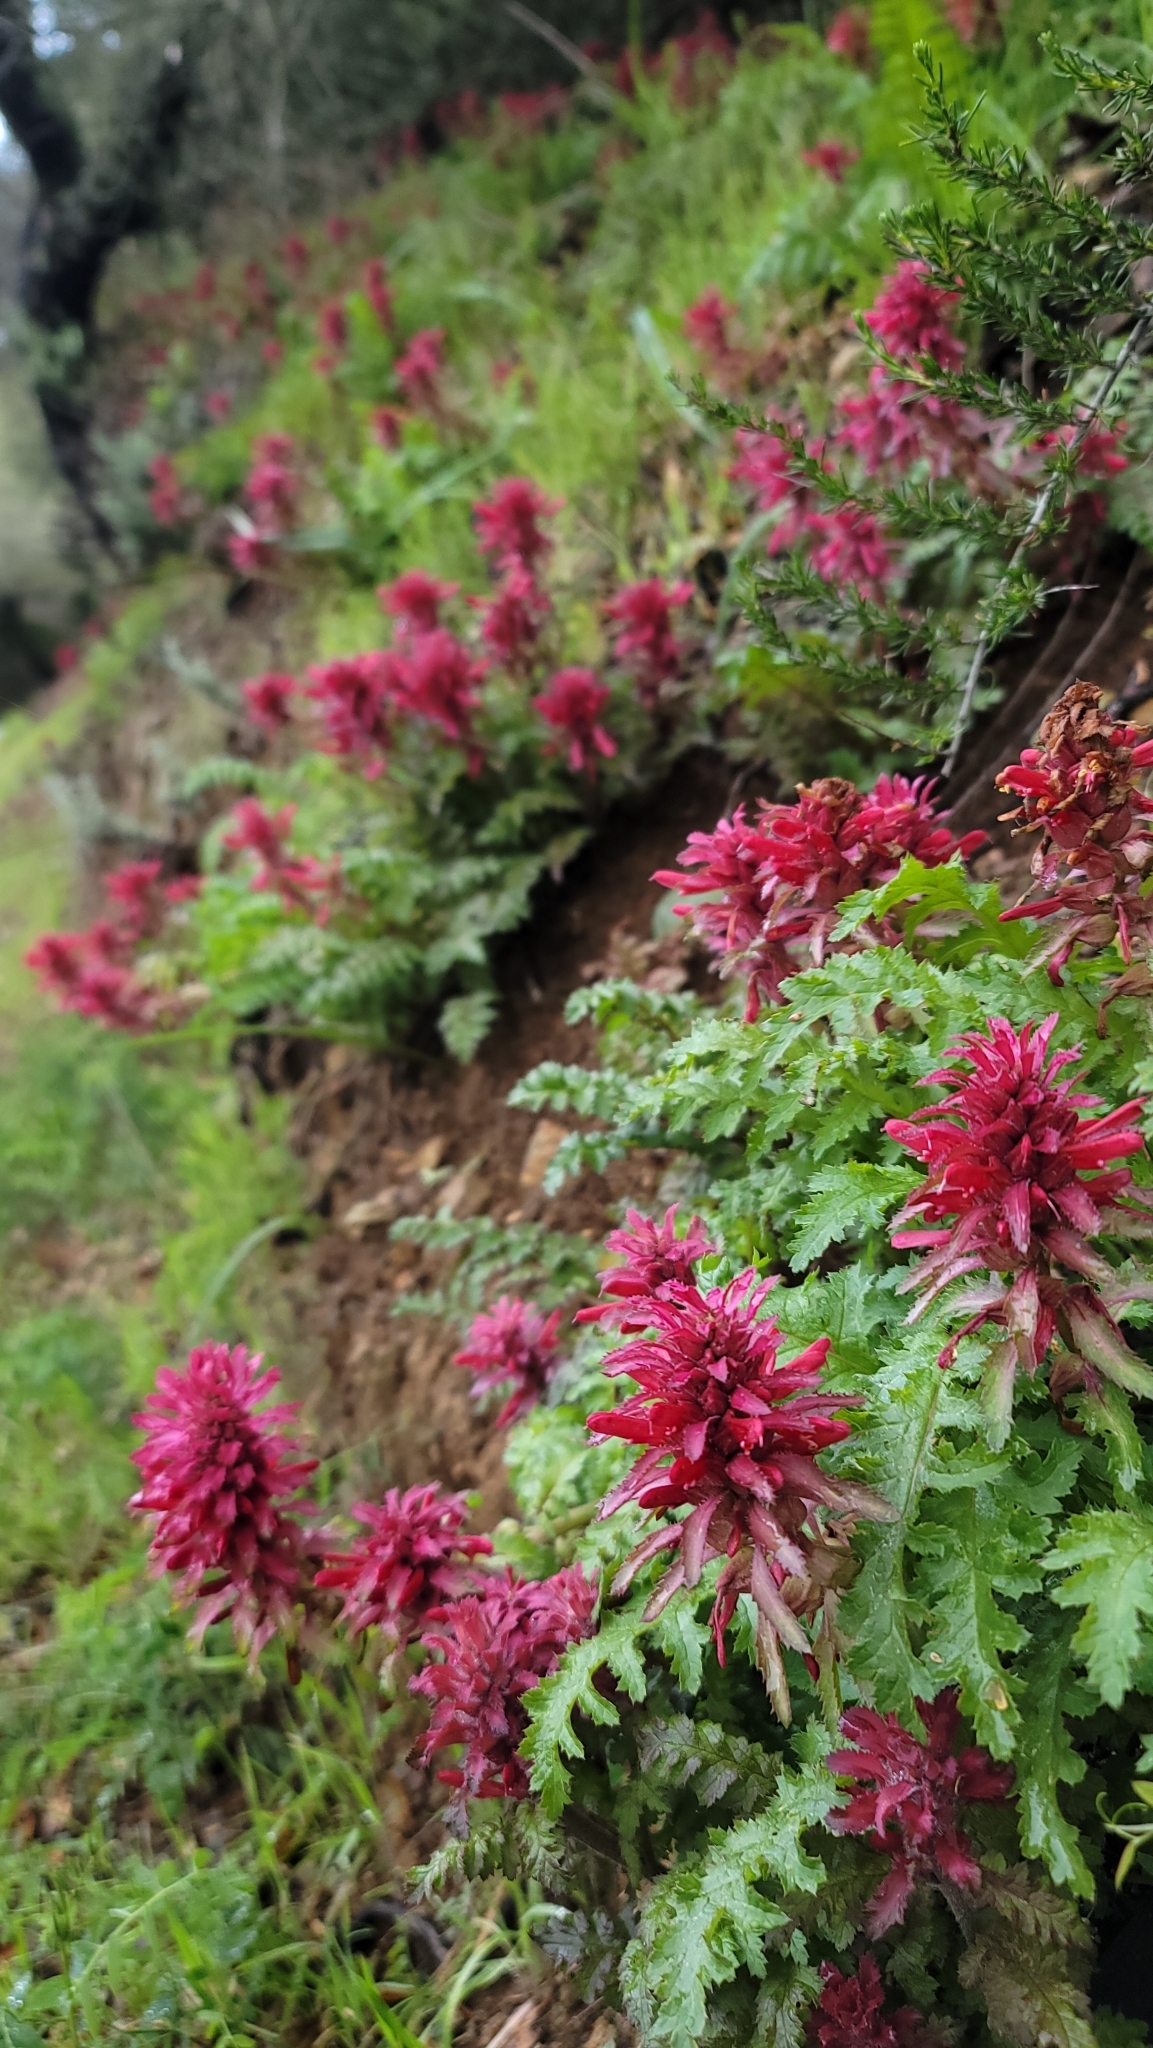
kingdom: Plantae
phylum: Tracheophyta
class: Magnoliopsida
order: Lamiales
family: Orobanchaceae
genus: Pedicularis
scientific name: Pedicularis densiflora
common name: Indian warrior
